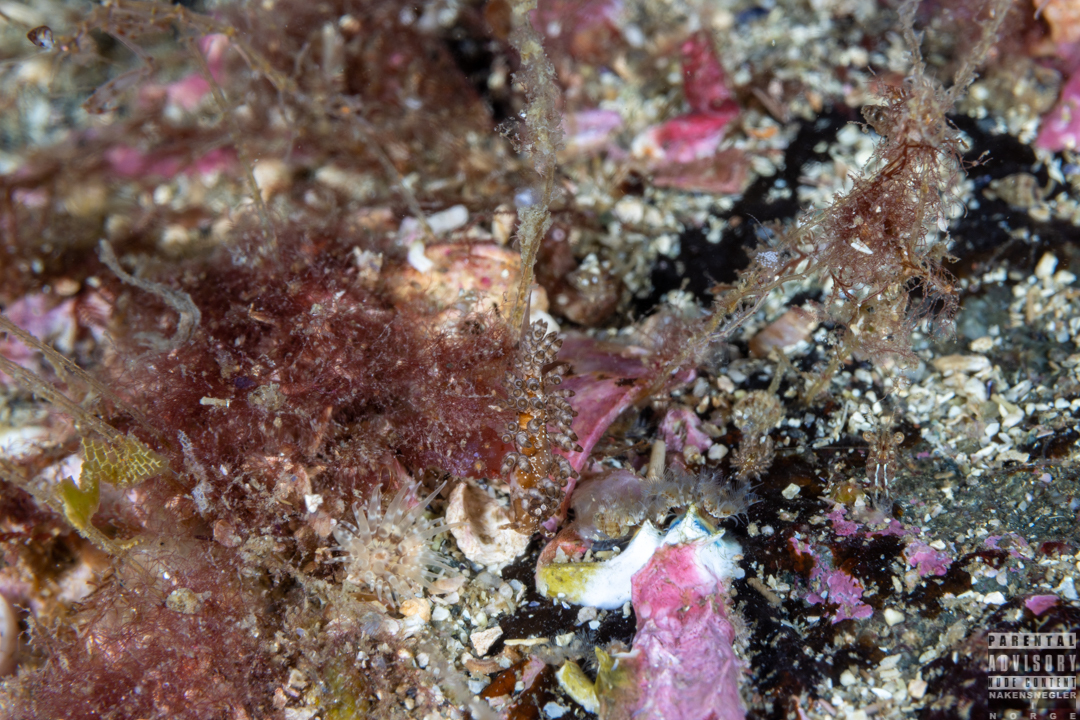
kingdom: Animalia
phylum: Mollusca
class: Gastropoda
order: Nudibranchia
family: Eubranchidae
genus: Eubranchus
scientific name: Eubranchus vittatus
